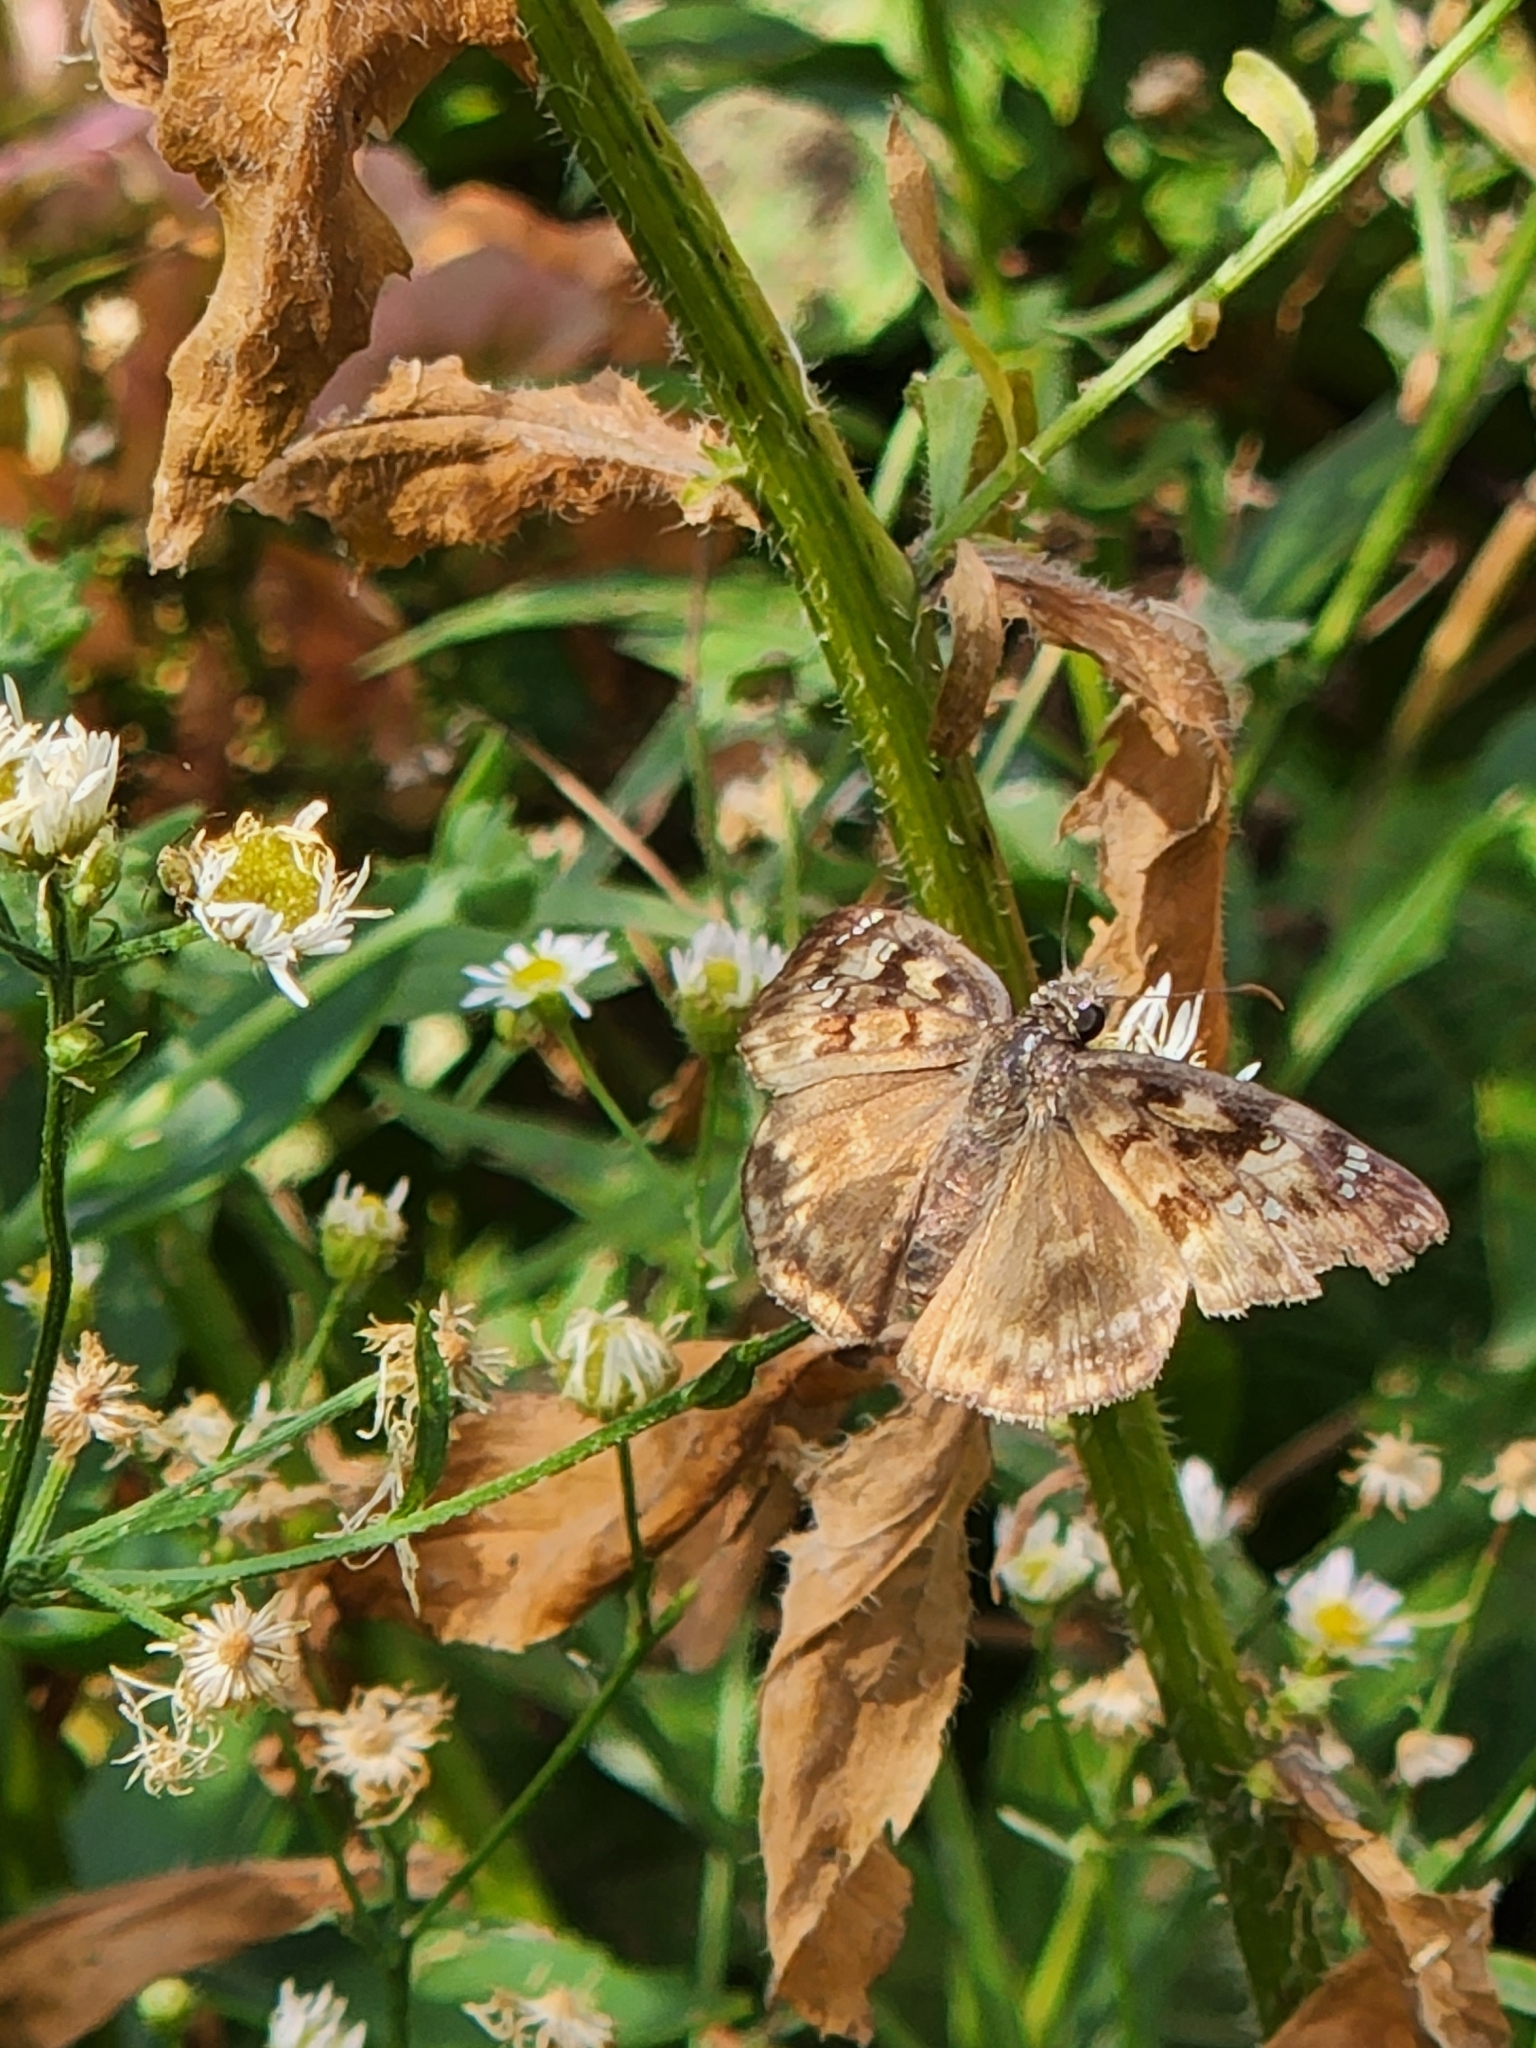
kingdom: Animalia
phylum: Arthropoda
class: Insecta
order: Lepidoptera
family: Hesperiidae
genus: Erynnis
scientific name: Erynnis horatius
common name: Horace's duskywing
